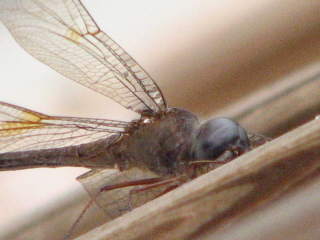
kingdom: Animalia
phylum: Arthropoda
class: Insecta
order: Odonata
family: Libellulidae
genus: Tholymis
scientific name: Tholymis citrina
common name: Evening skimmer
